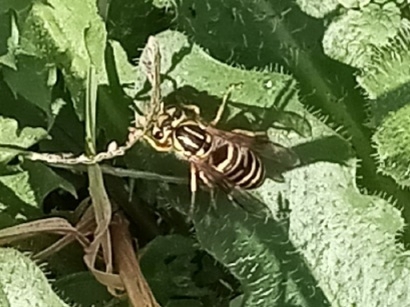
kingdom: Animalia
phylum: Arthropoda
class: Insecta
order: Hymenoptera
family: Vespidae
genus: Vespula
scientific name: Vespula squamosa
